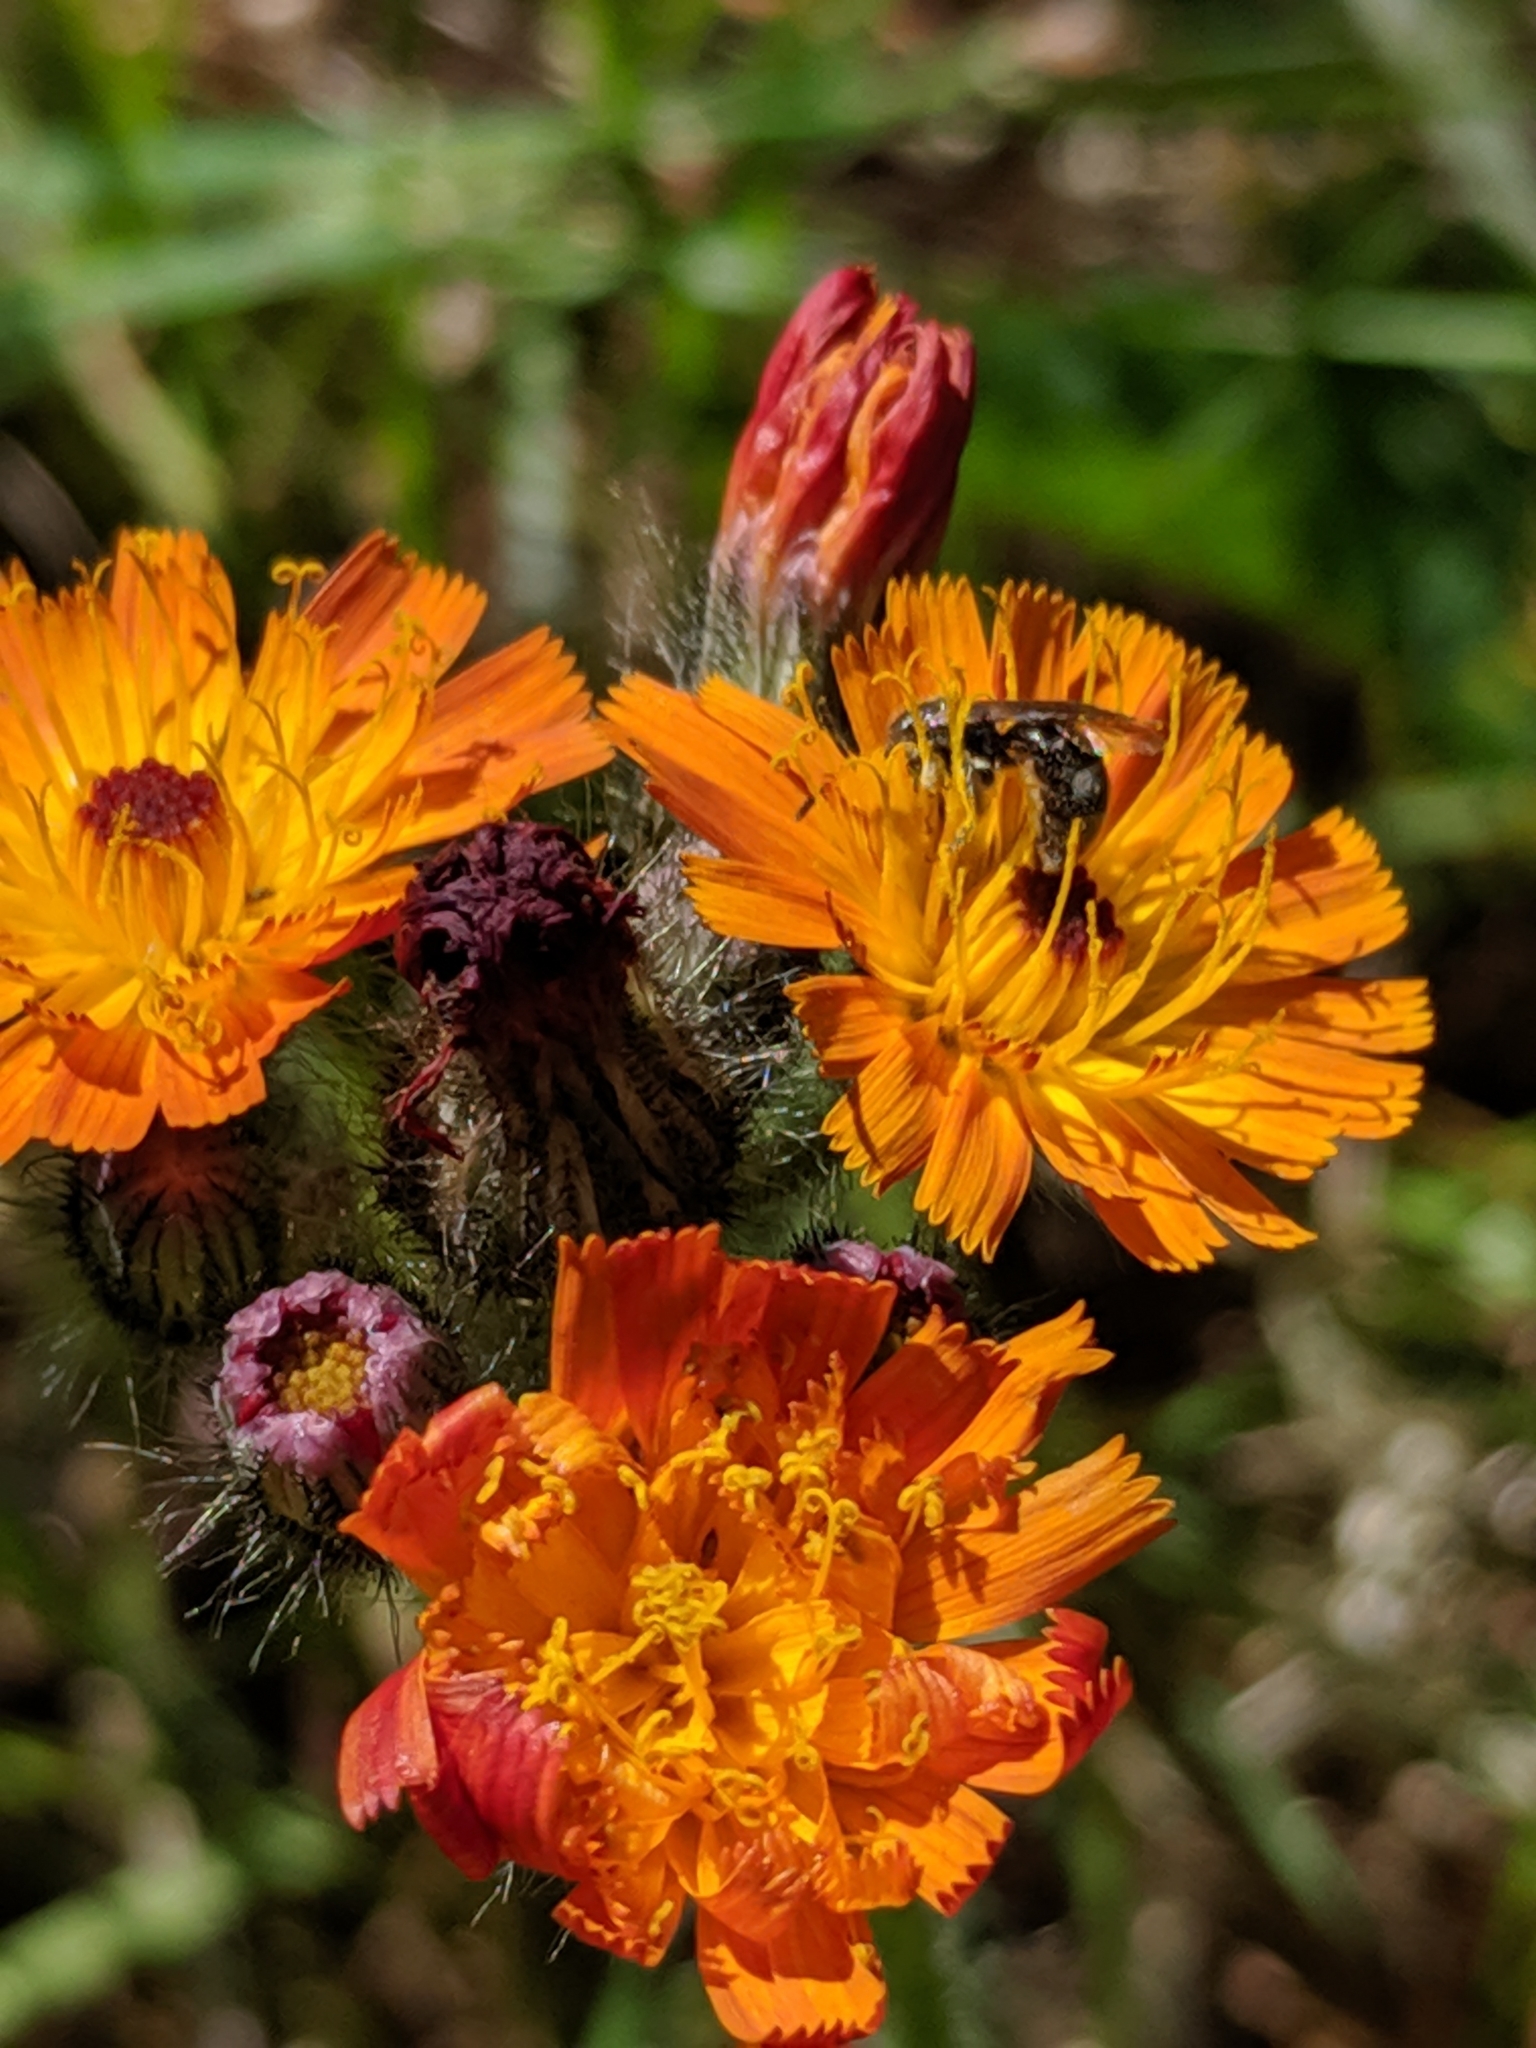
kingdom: Plantae
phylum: Tracheophyta
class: Magnoliopsida
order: Asterales
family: Asteraceae
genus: Pilosella
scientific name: Pilosella aurantiaca
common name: Fox-and-cubs
